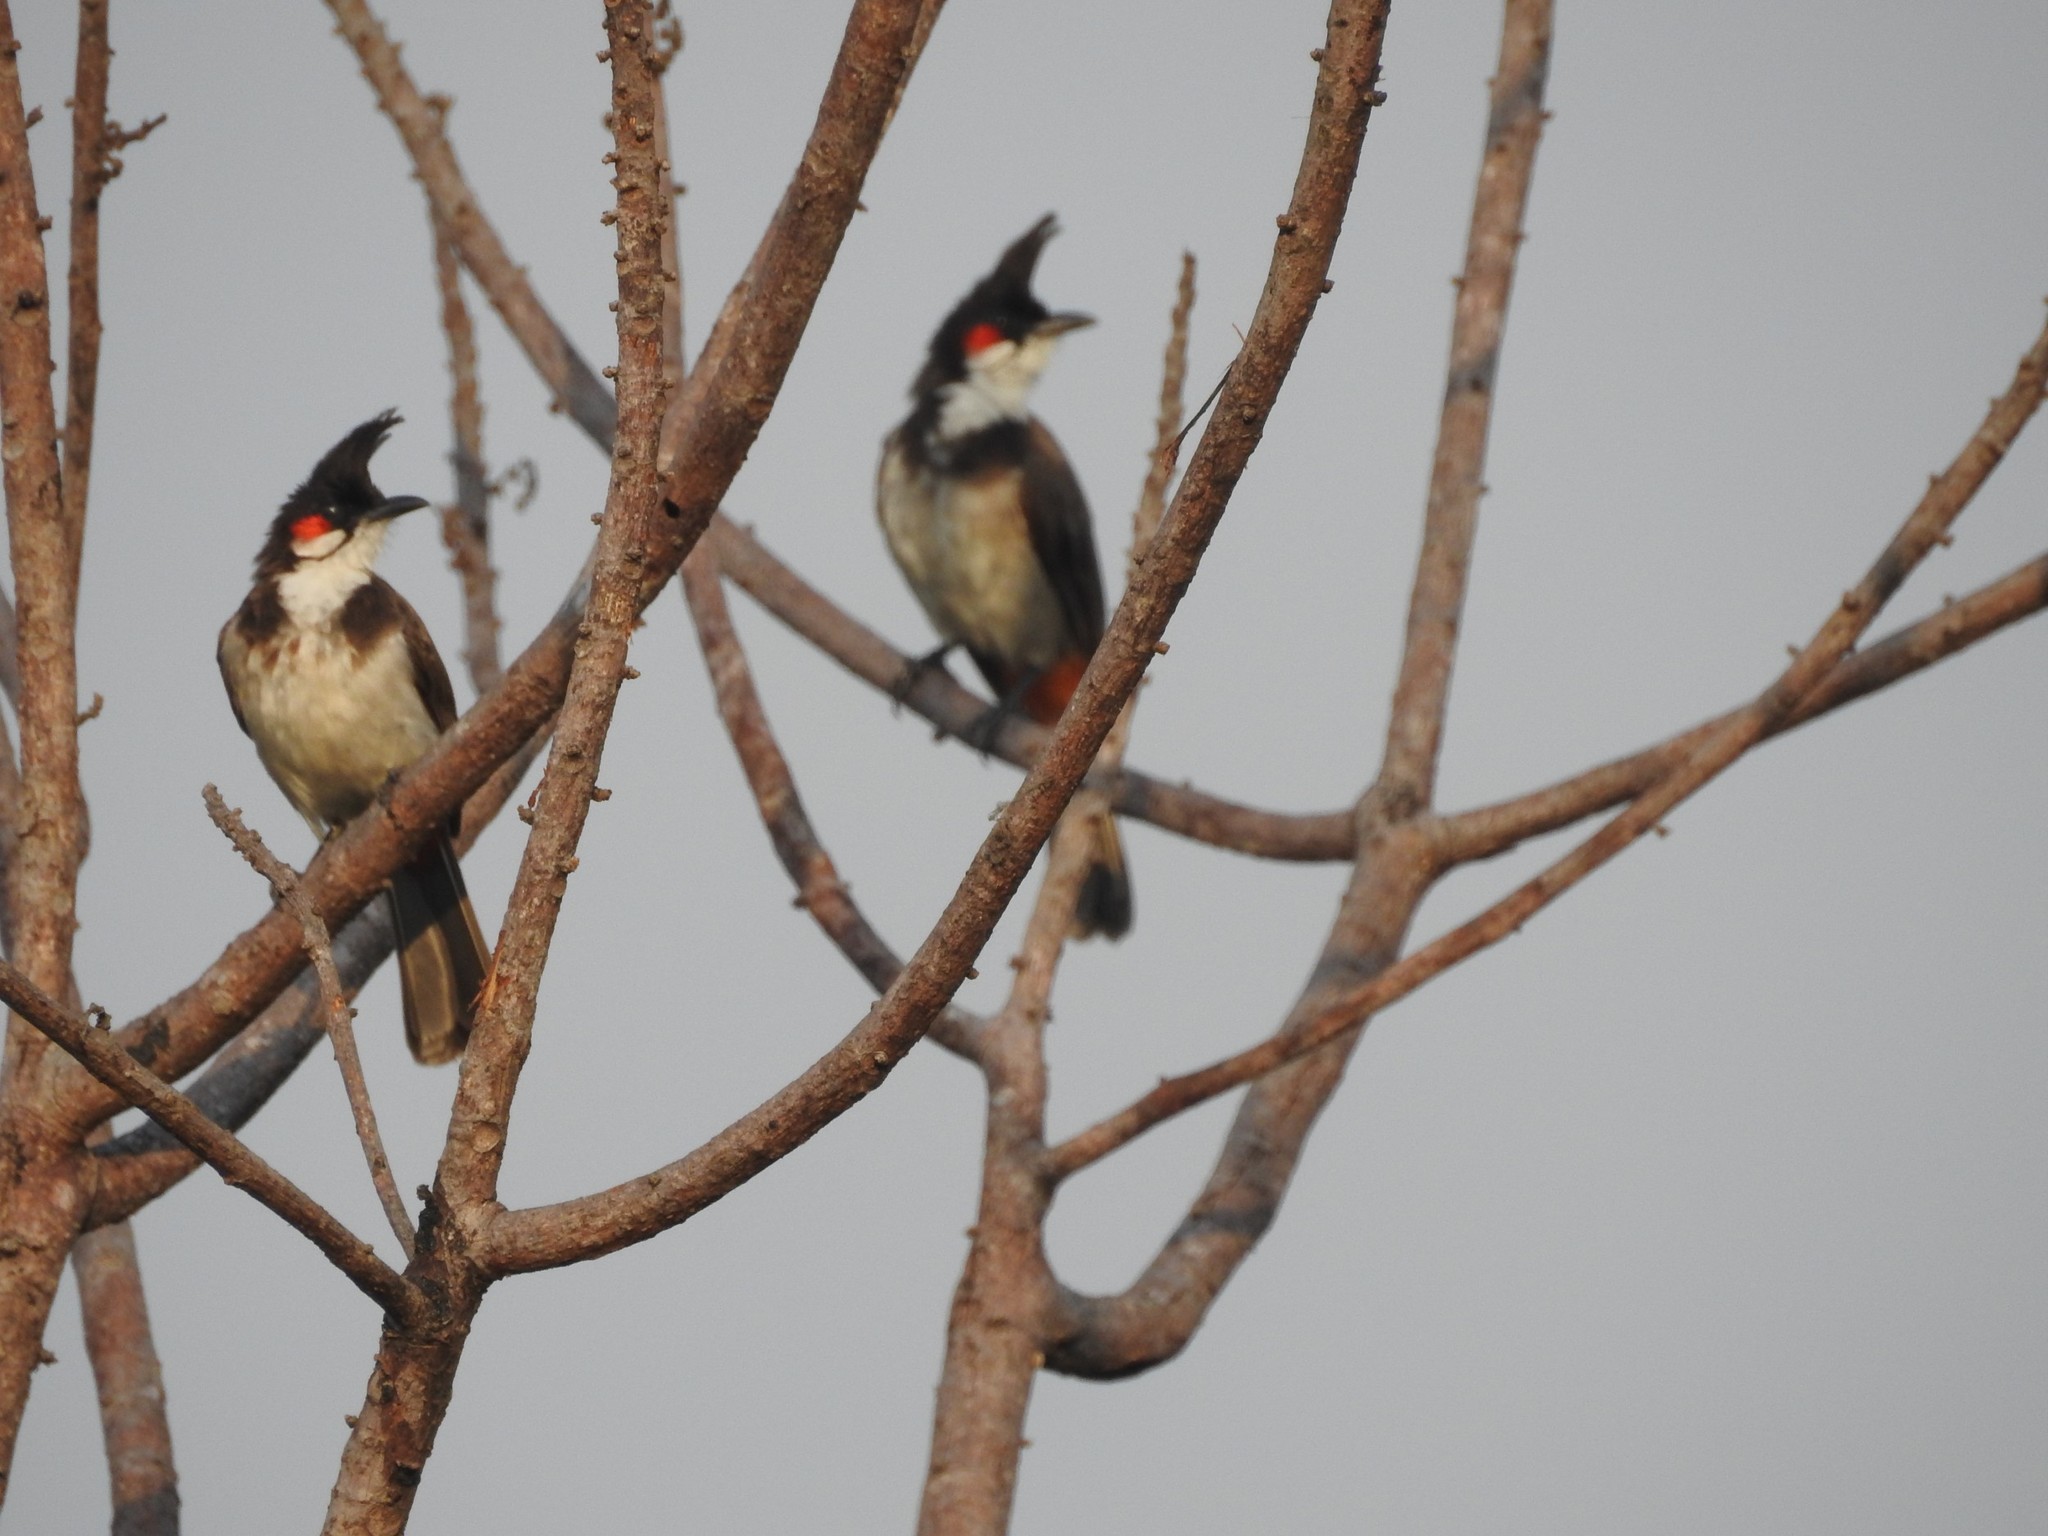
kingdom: Animalia
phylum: Chordata
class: Aves
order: Passeriformes
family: Pycnonotidae
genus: Pycnonotus
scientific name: Pycnonotus jocosus
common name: Red-whiskered bulbul
